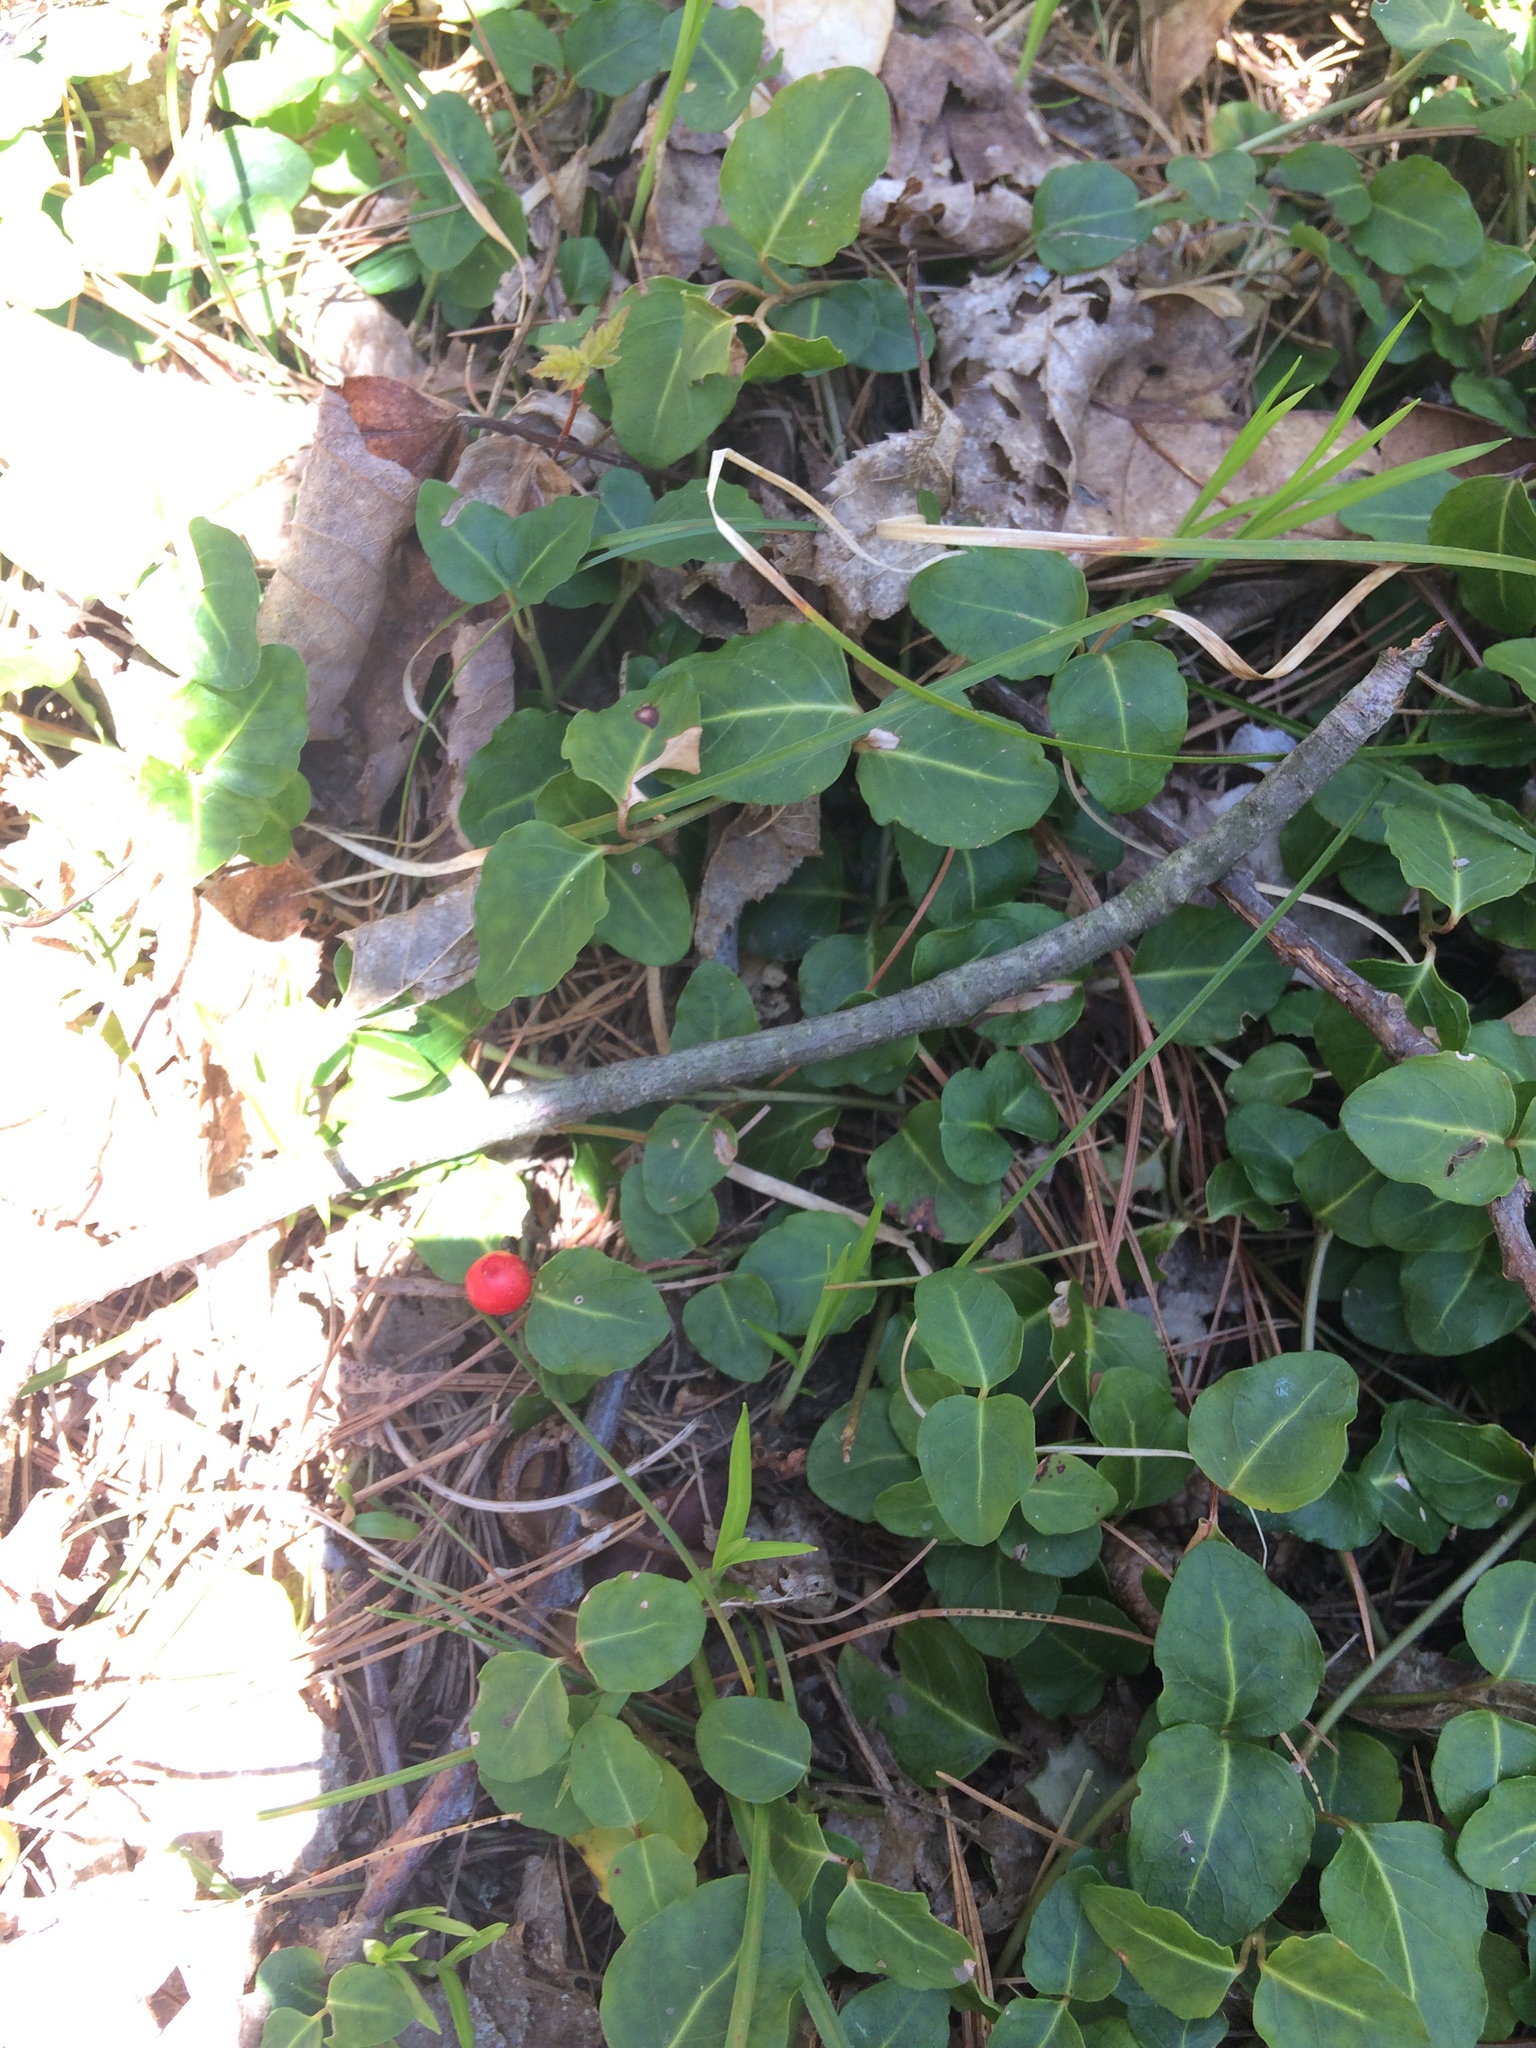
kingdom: Plantae
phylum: Tracheophyta
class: Magnoliopsida
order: Gentianales
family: Rubiaceae
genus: Mitchella
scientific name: Mitchella repens
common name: Partridge-berry
